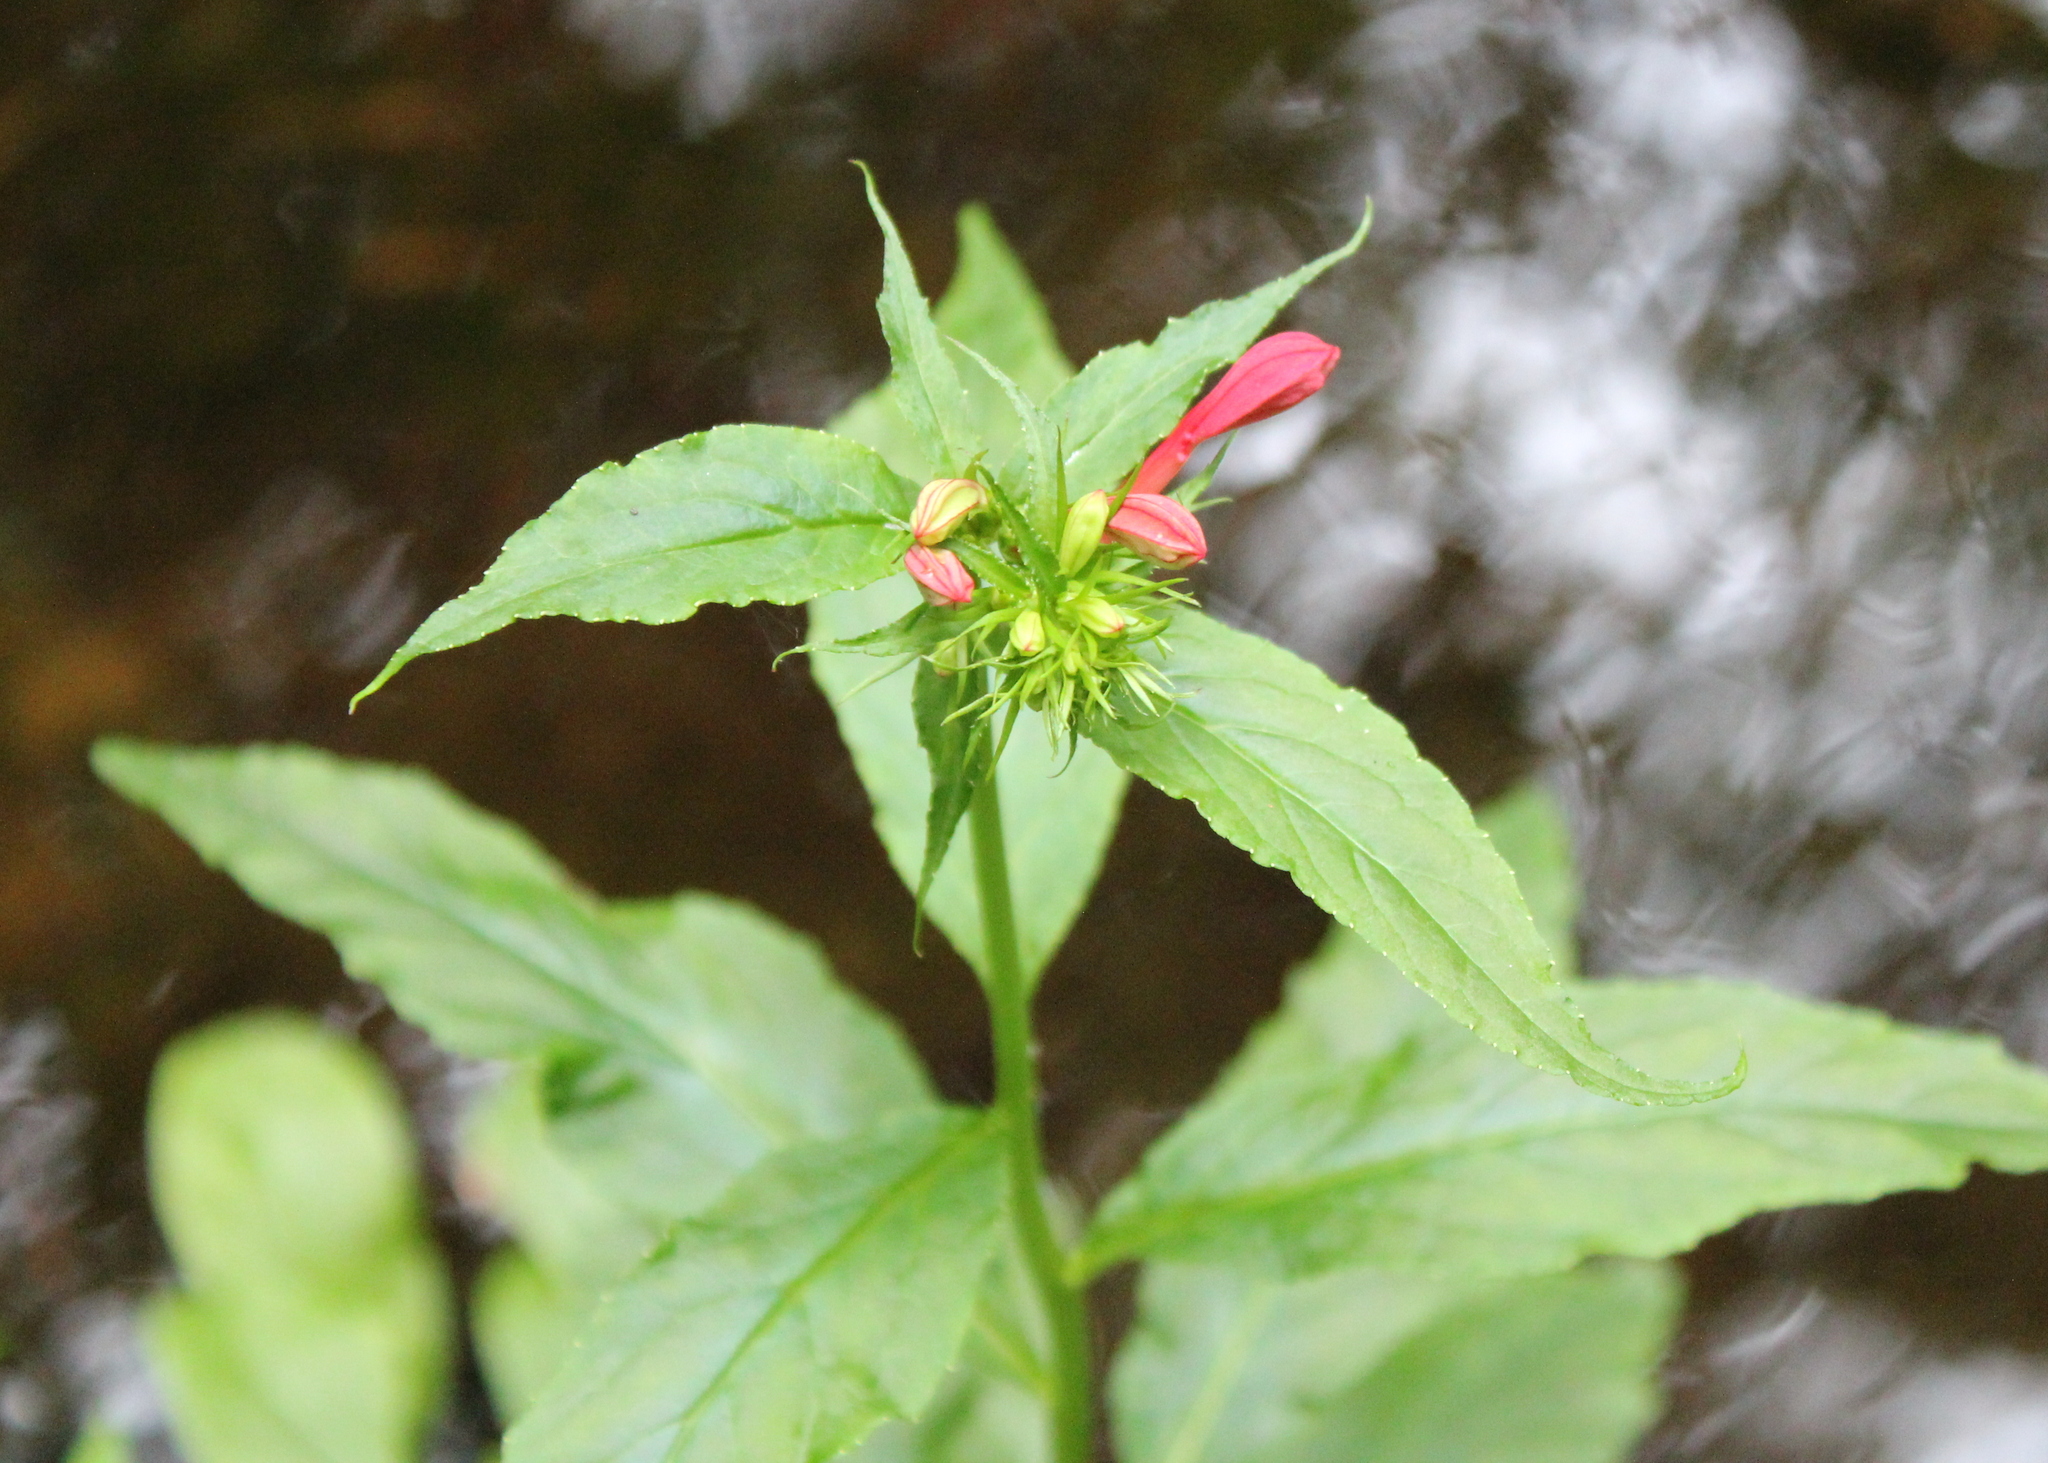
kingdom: Plantae
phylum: Tracheophyta
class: Magnoliopsida
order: Asterales
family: Campanulaceae
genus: Lobelia
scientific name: Lobelia cardinalis
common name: Cardinal flower
